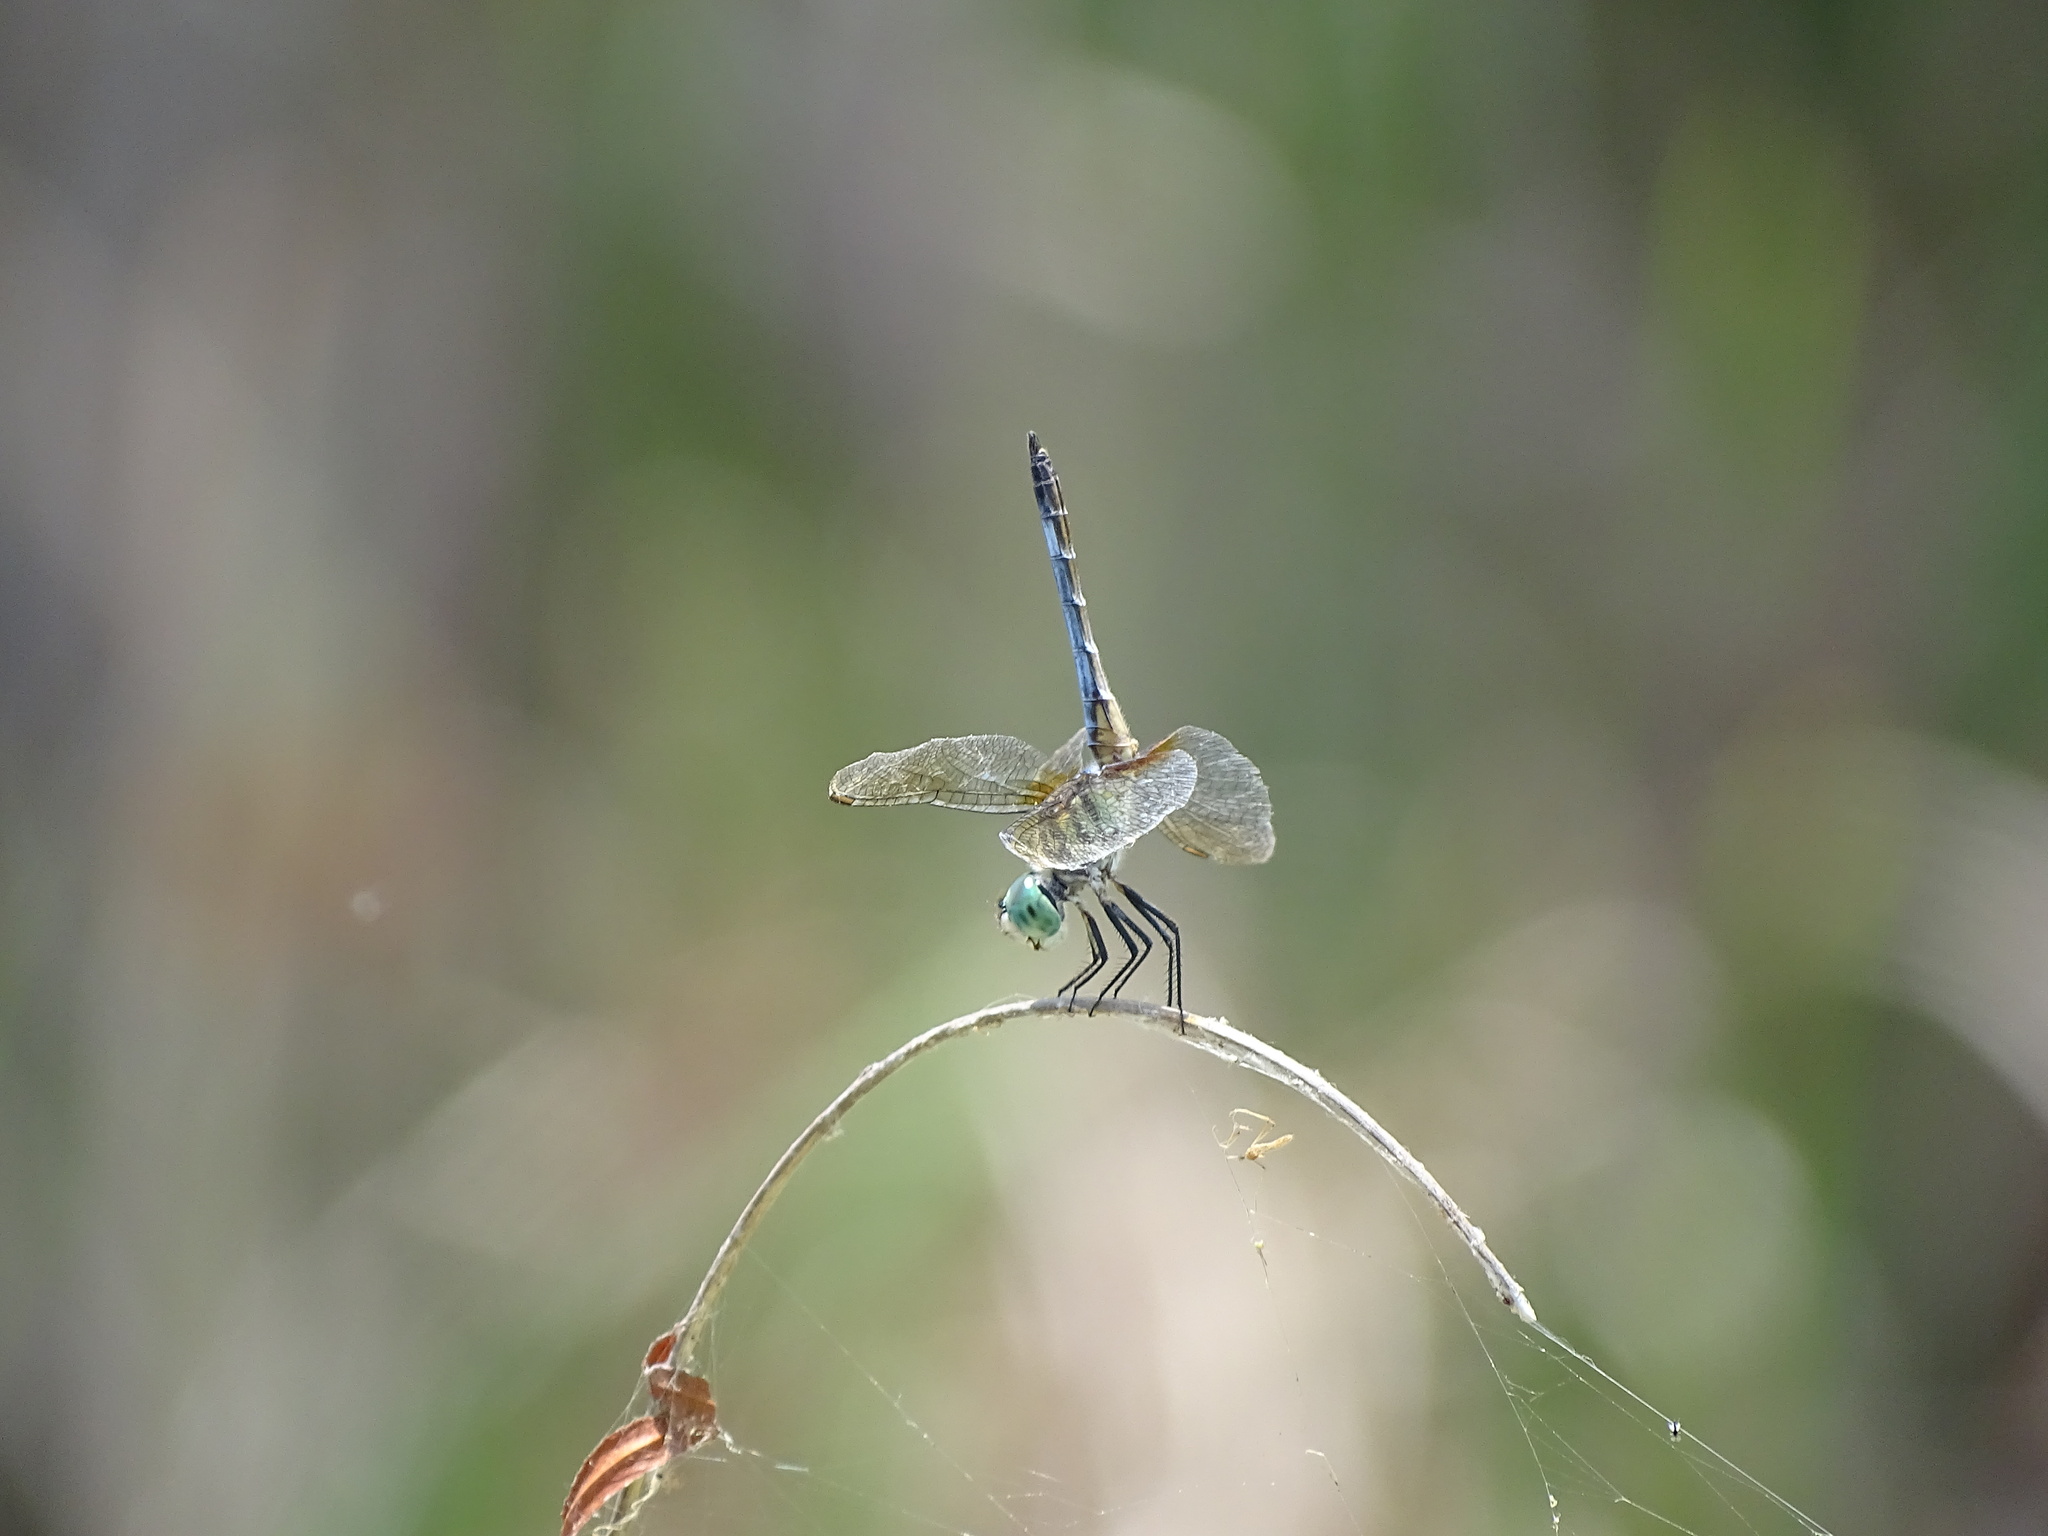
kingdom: Animalia
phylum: Arthropoda
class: Insecta
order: Odonata
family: Libellulidae
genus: Pachydiplax
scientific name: Pachydiplax longipennis
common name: Blue dasher
